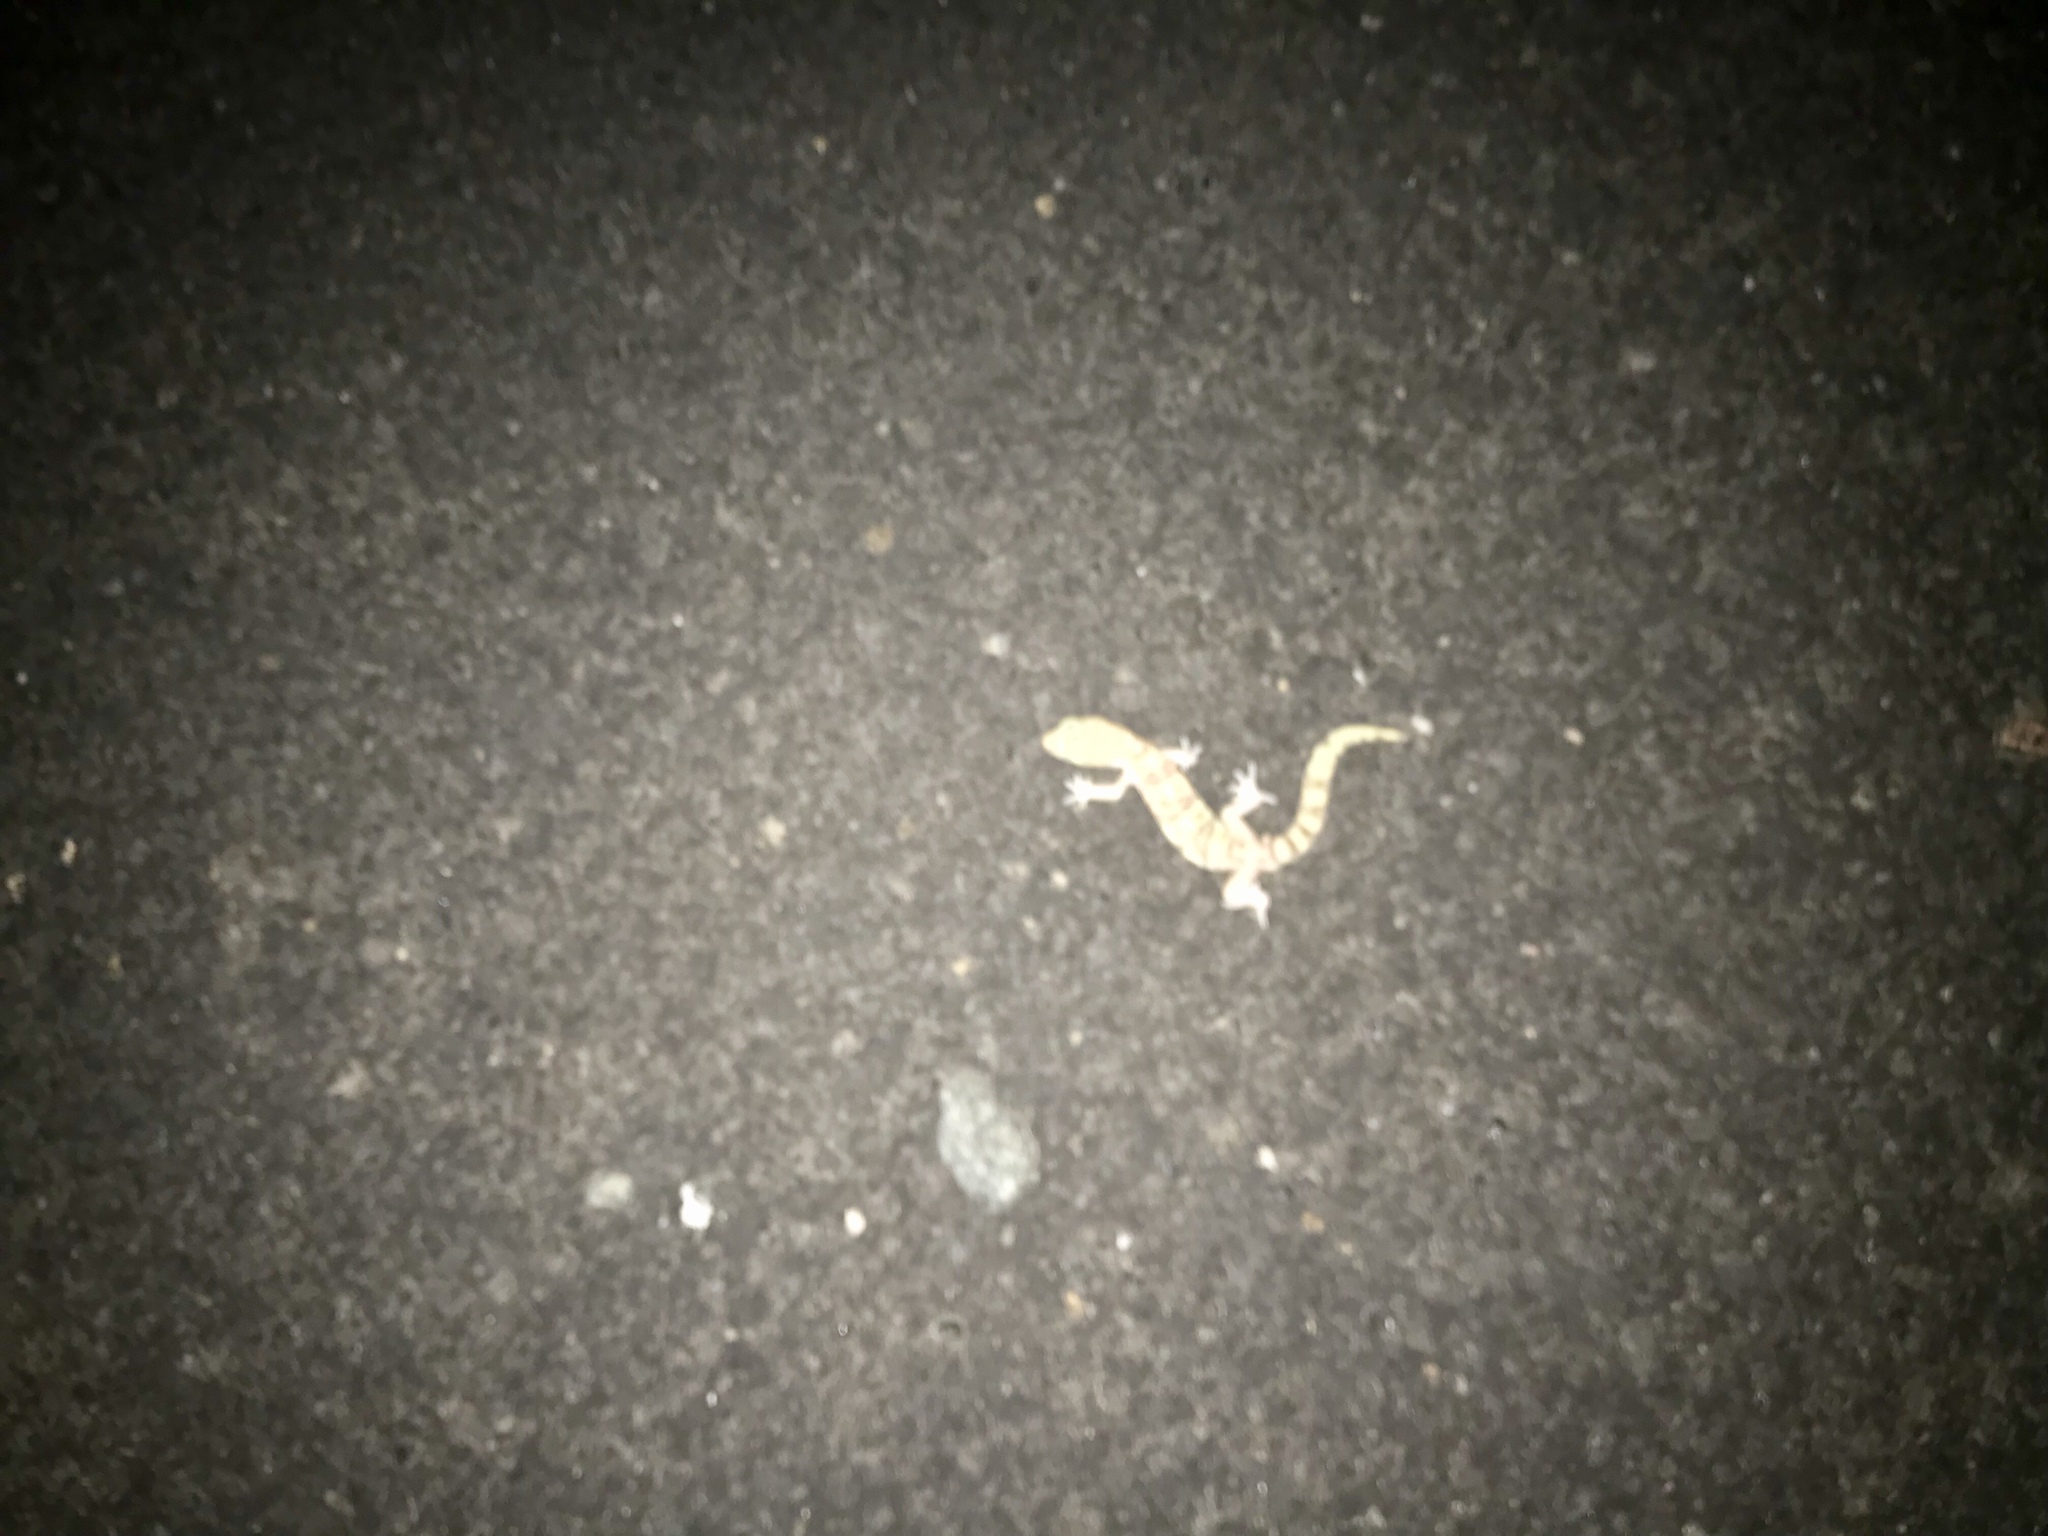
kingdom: Animalia
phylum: Chordata
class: Squamata
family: Eublepharidae
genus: Coleonyx
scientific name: Coleonyx variegatus
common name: Western banded gecko
